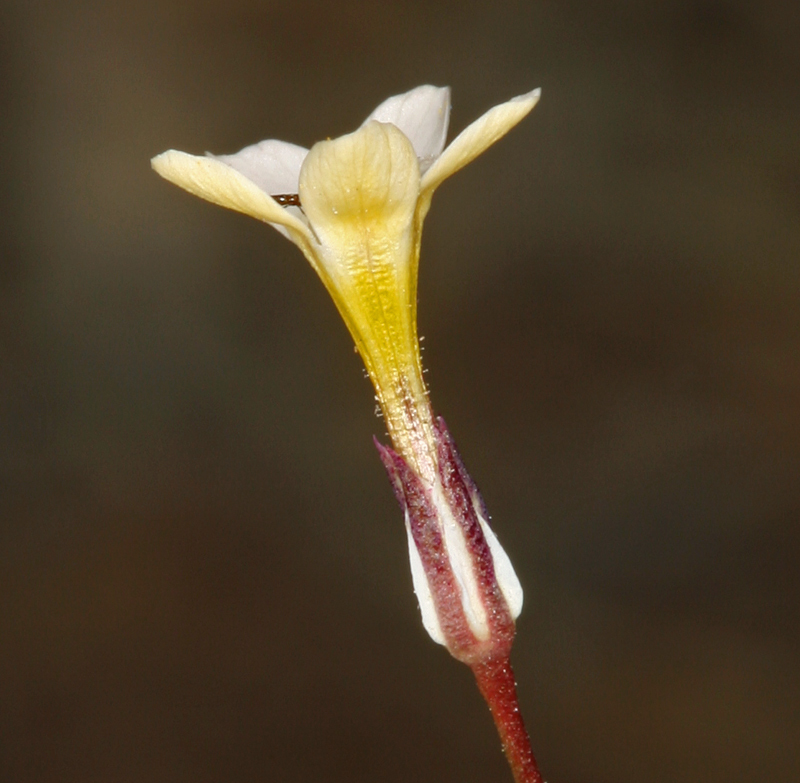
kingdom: Plantae
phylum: Tracheophyta
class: Magnoliopsida
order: Ericales
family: Polemoniaceae
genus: Gilia
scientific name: Gilia clokeyi
